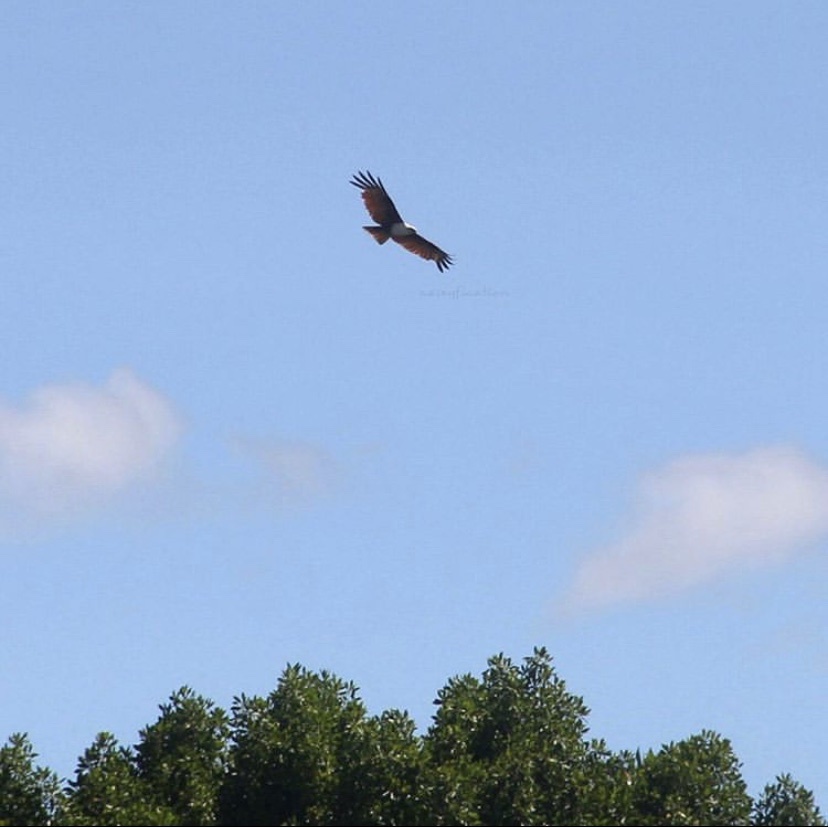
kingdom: Animalia
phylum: Chordata
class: Aves
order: Accipitriformes
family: Accipitridae
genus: Haliastur
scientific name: Haliastur indus
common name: Brahminy kite
